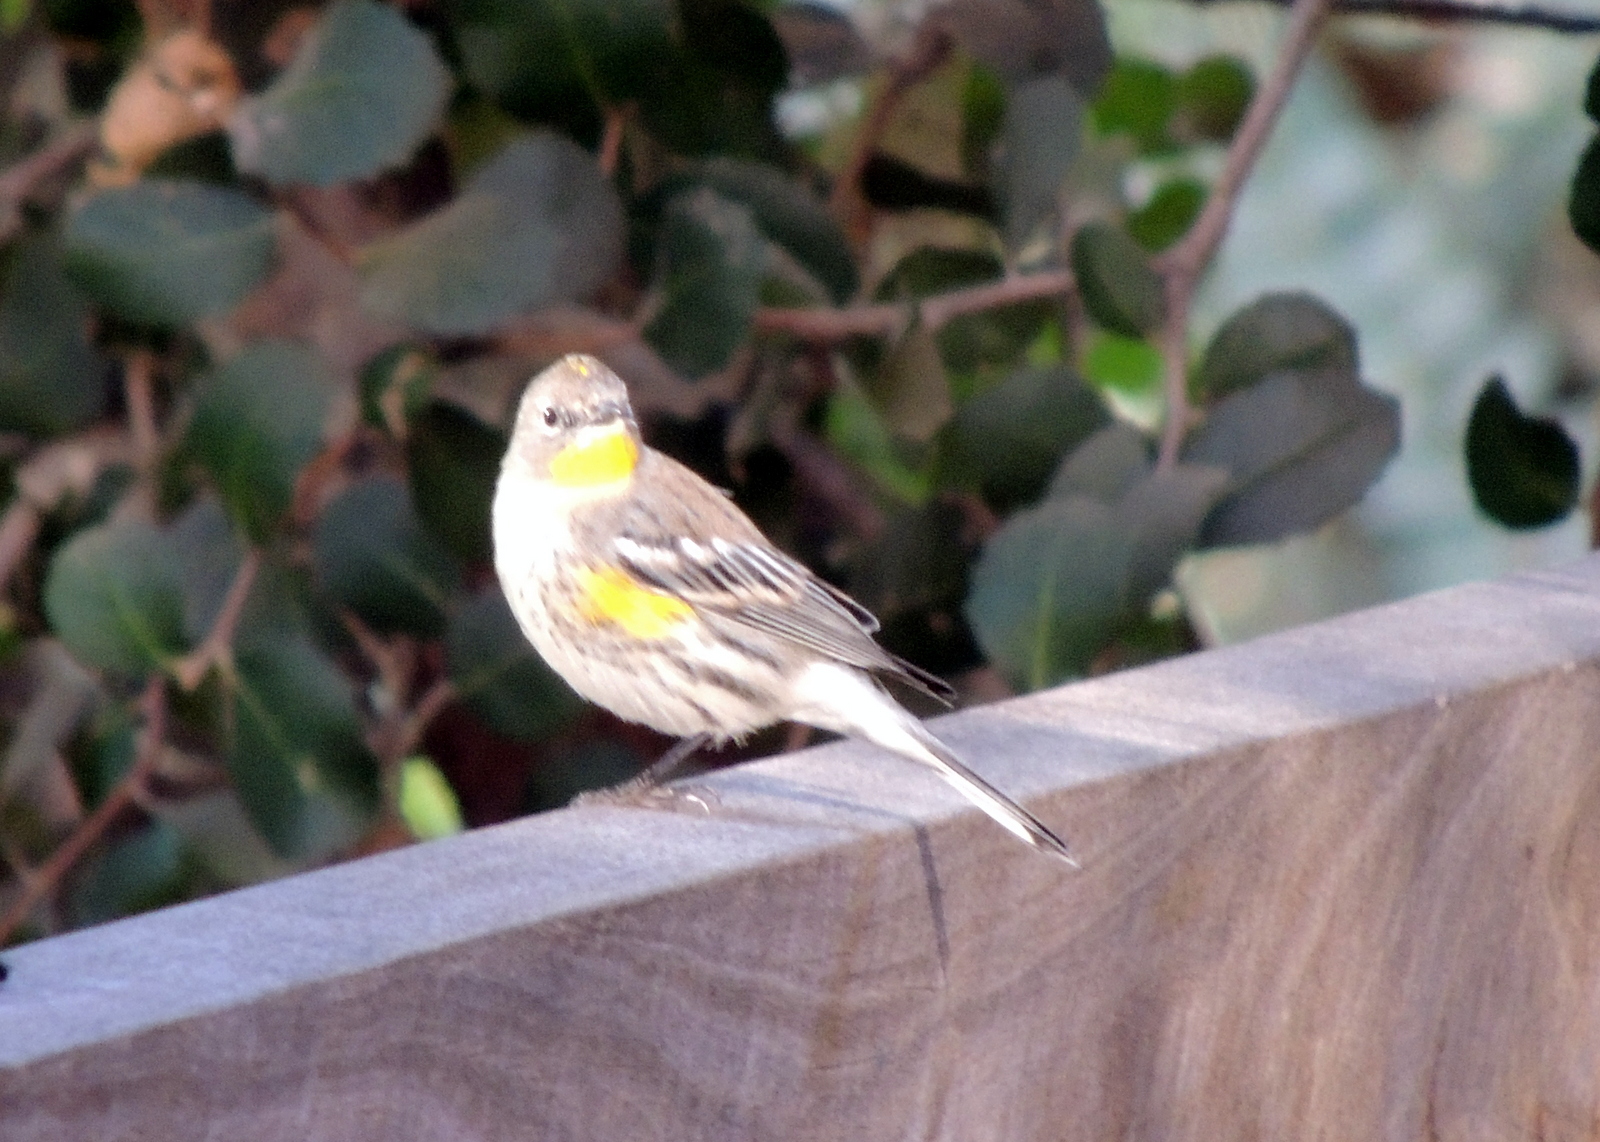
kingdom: Animalia
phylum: Chordata
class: Aves
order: Passeriformes
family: Parulidae
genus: Setophaga
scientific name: Setophaga coronata
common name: Myrtle warbler
